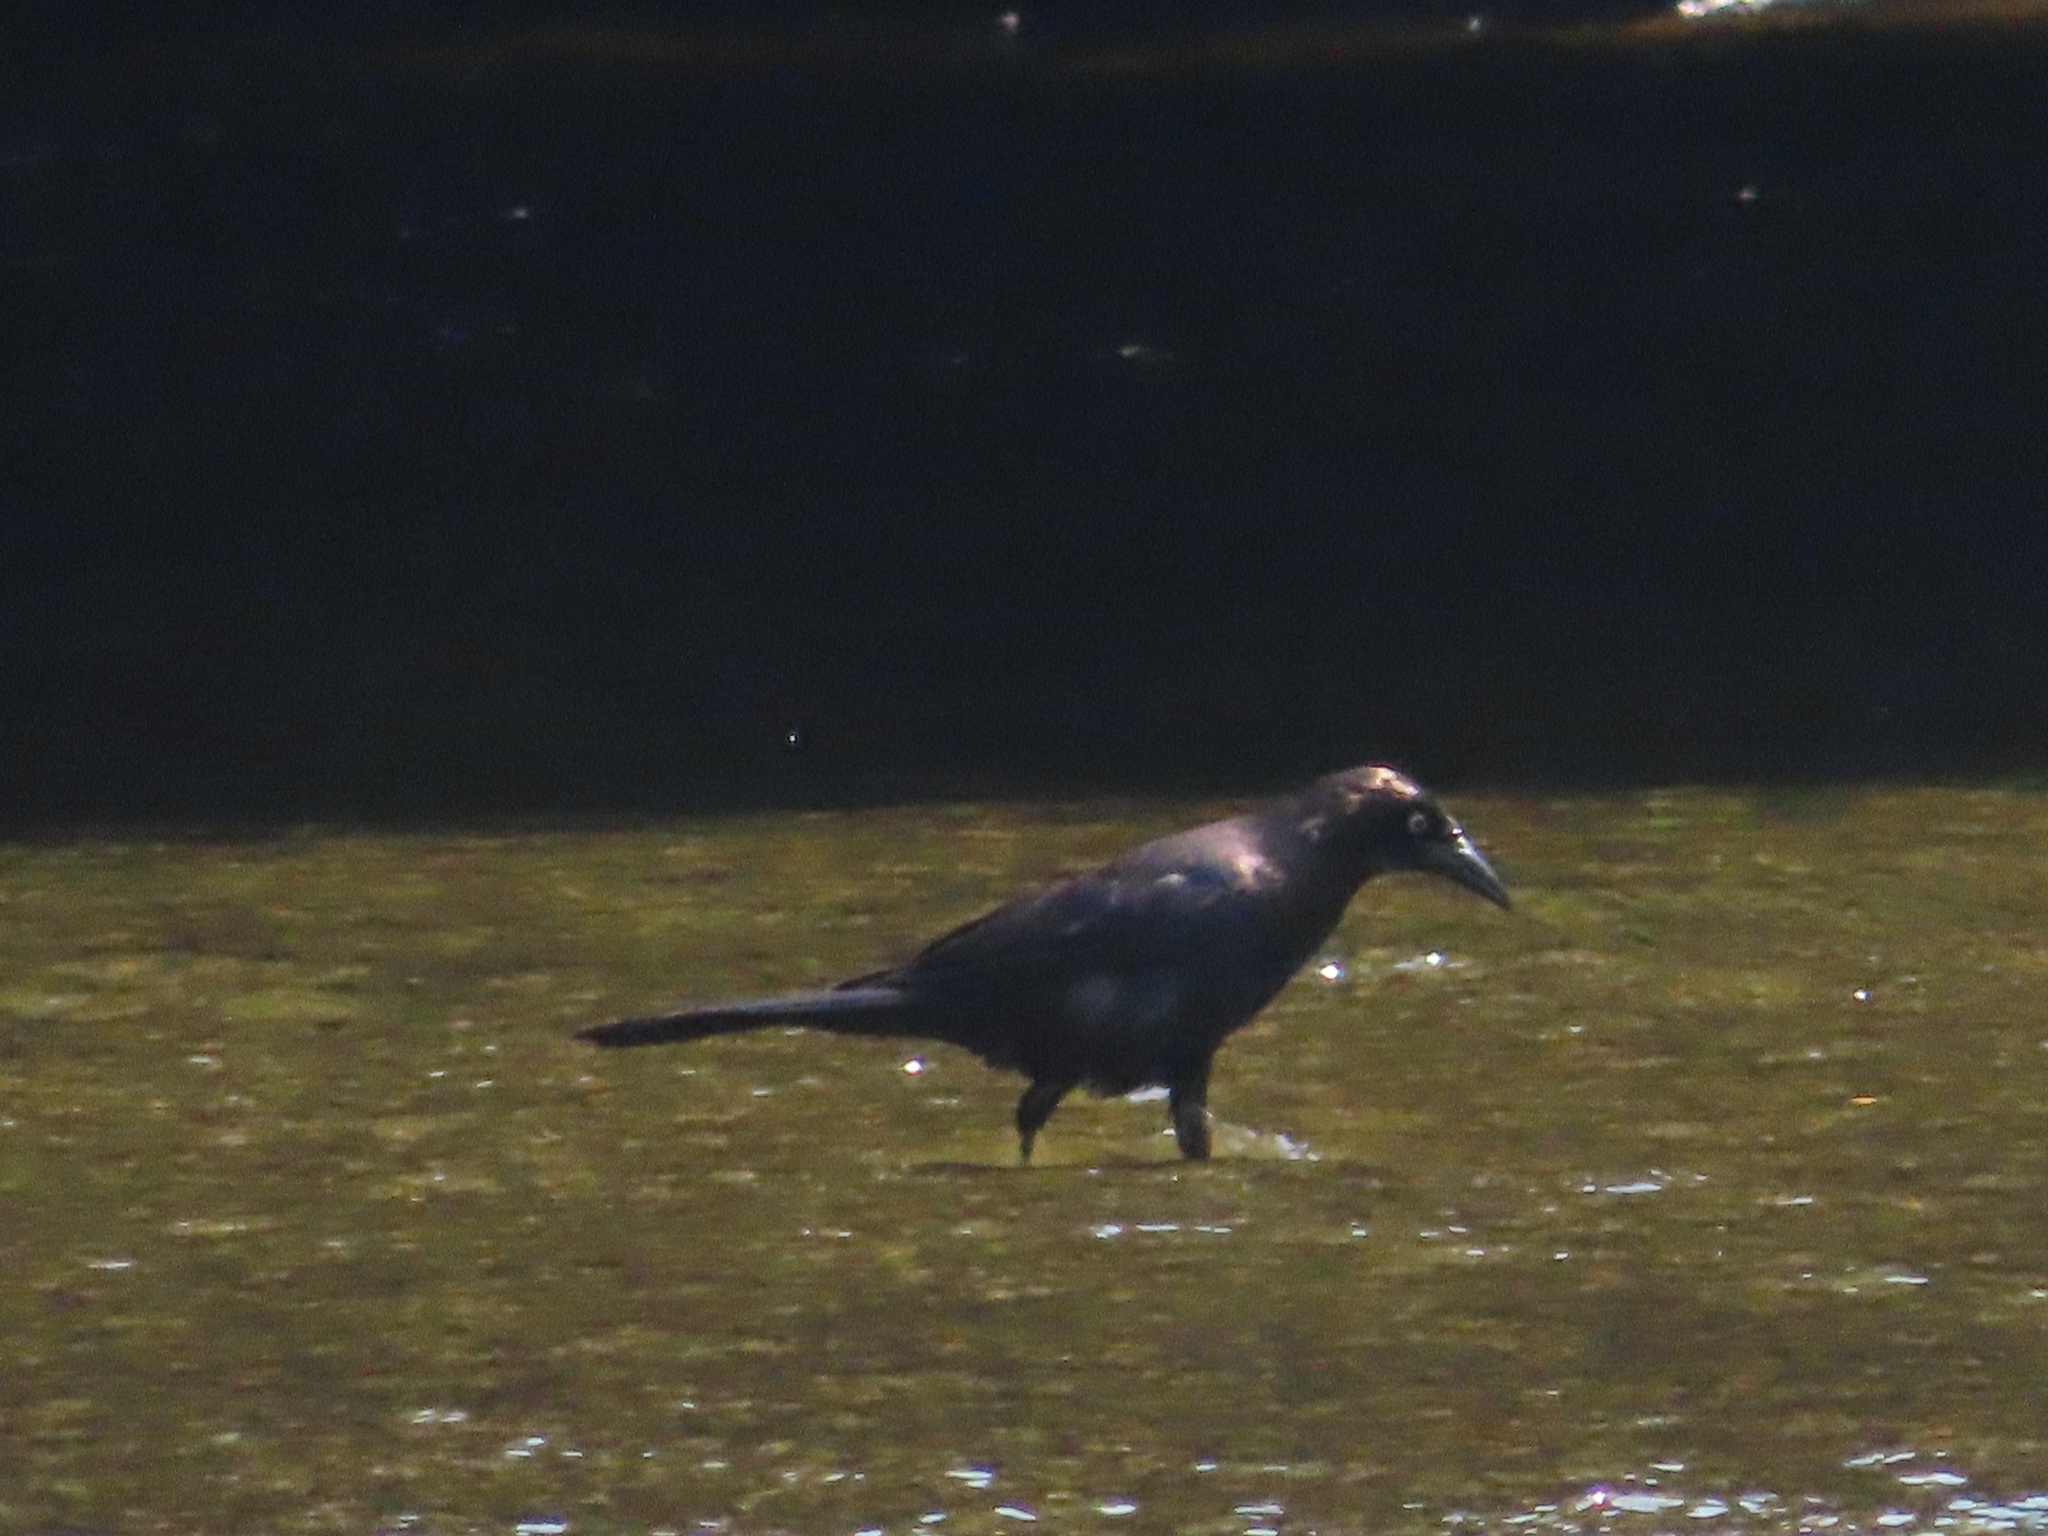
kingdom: Animalia
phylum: Chordata
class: Aves
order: Passeriformes
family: Icteridae
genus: Quiscalus
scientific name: Quiscalus quiscula
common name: Common grackle
